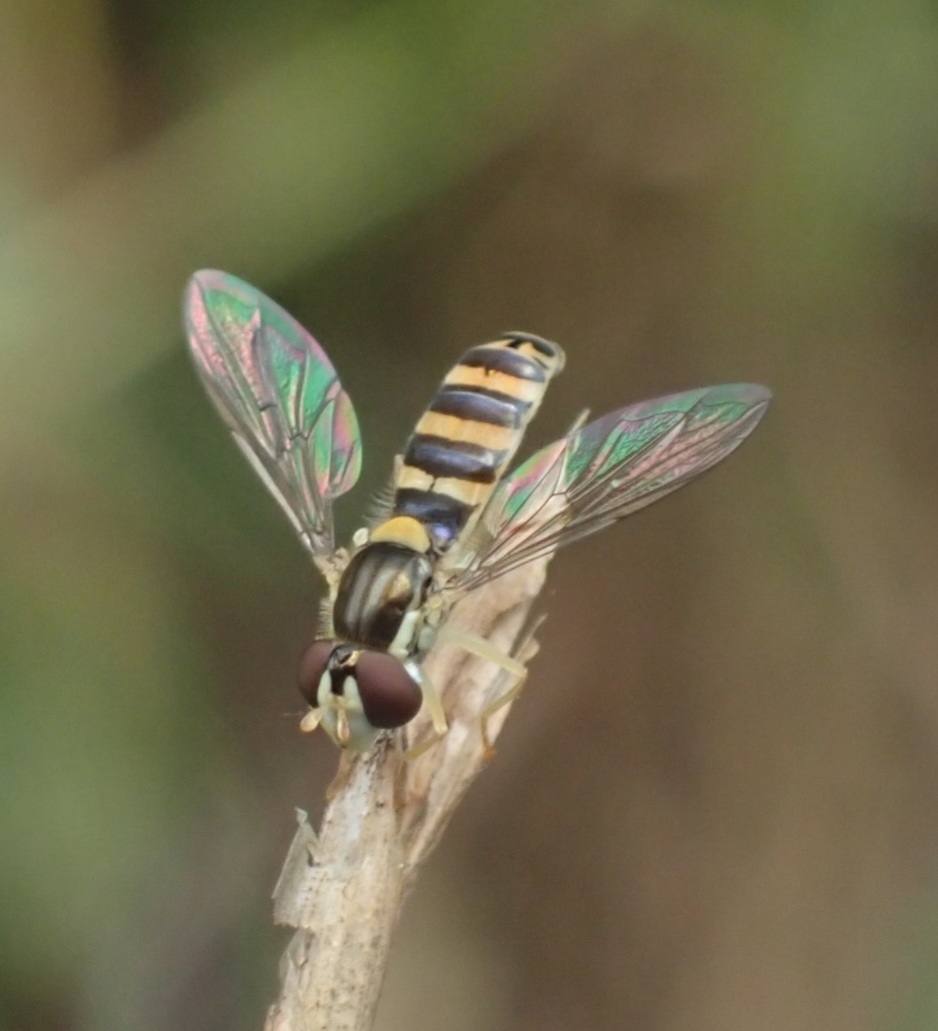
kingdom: Animalia
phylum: Arthropoda
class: Insecta
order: Diptera
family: Syrphidae
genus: Sphaerophoria
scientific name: Sphaerophoria
